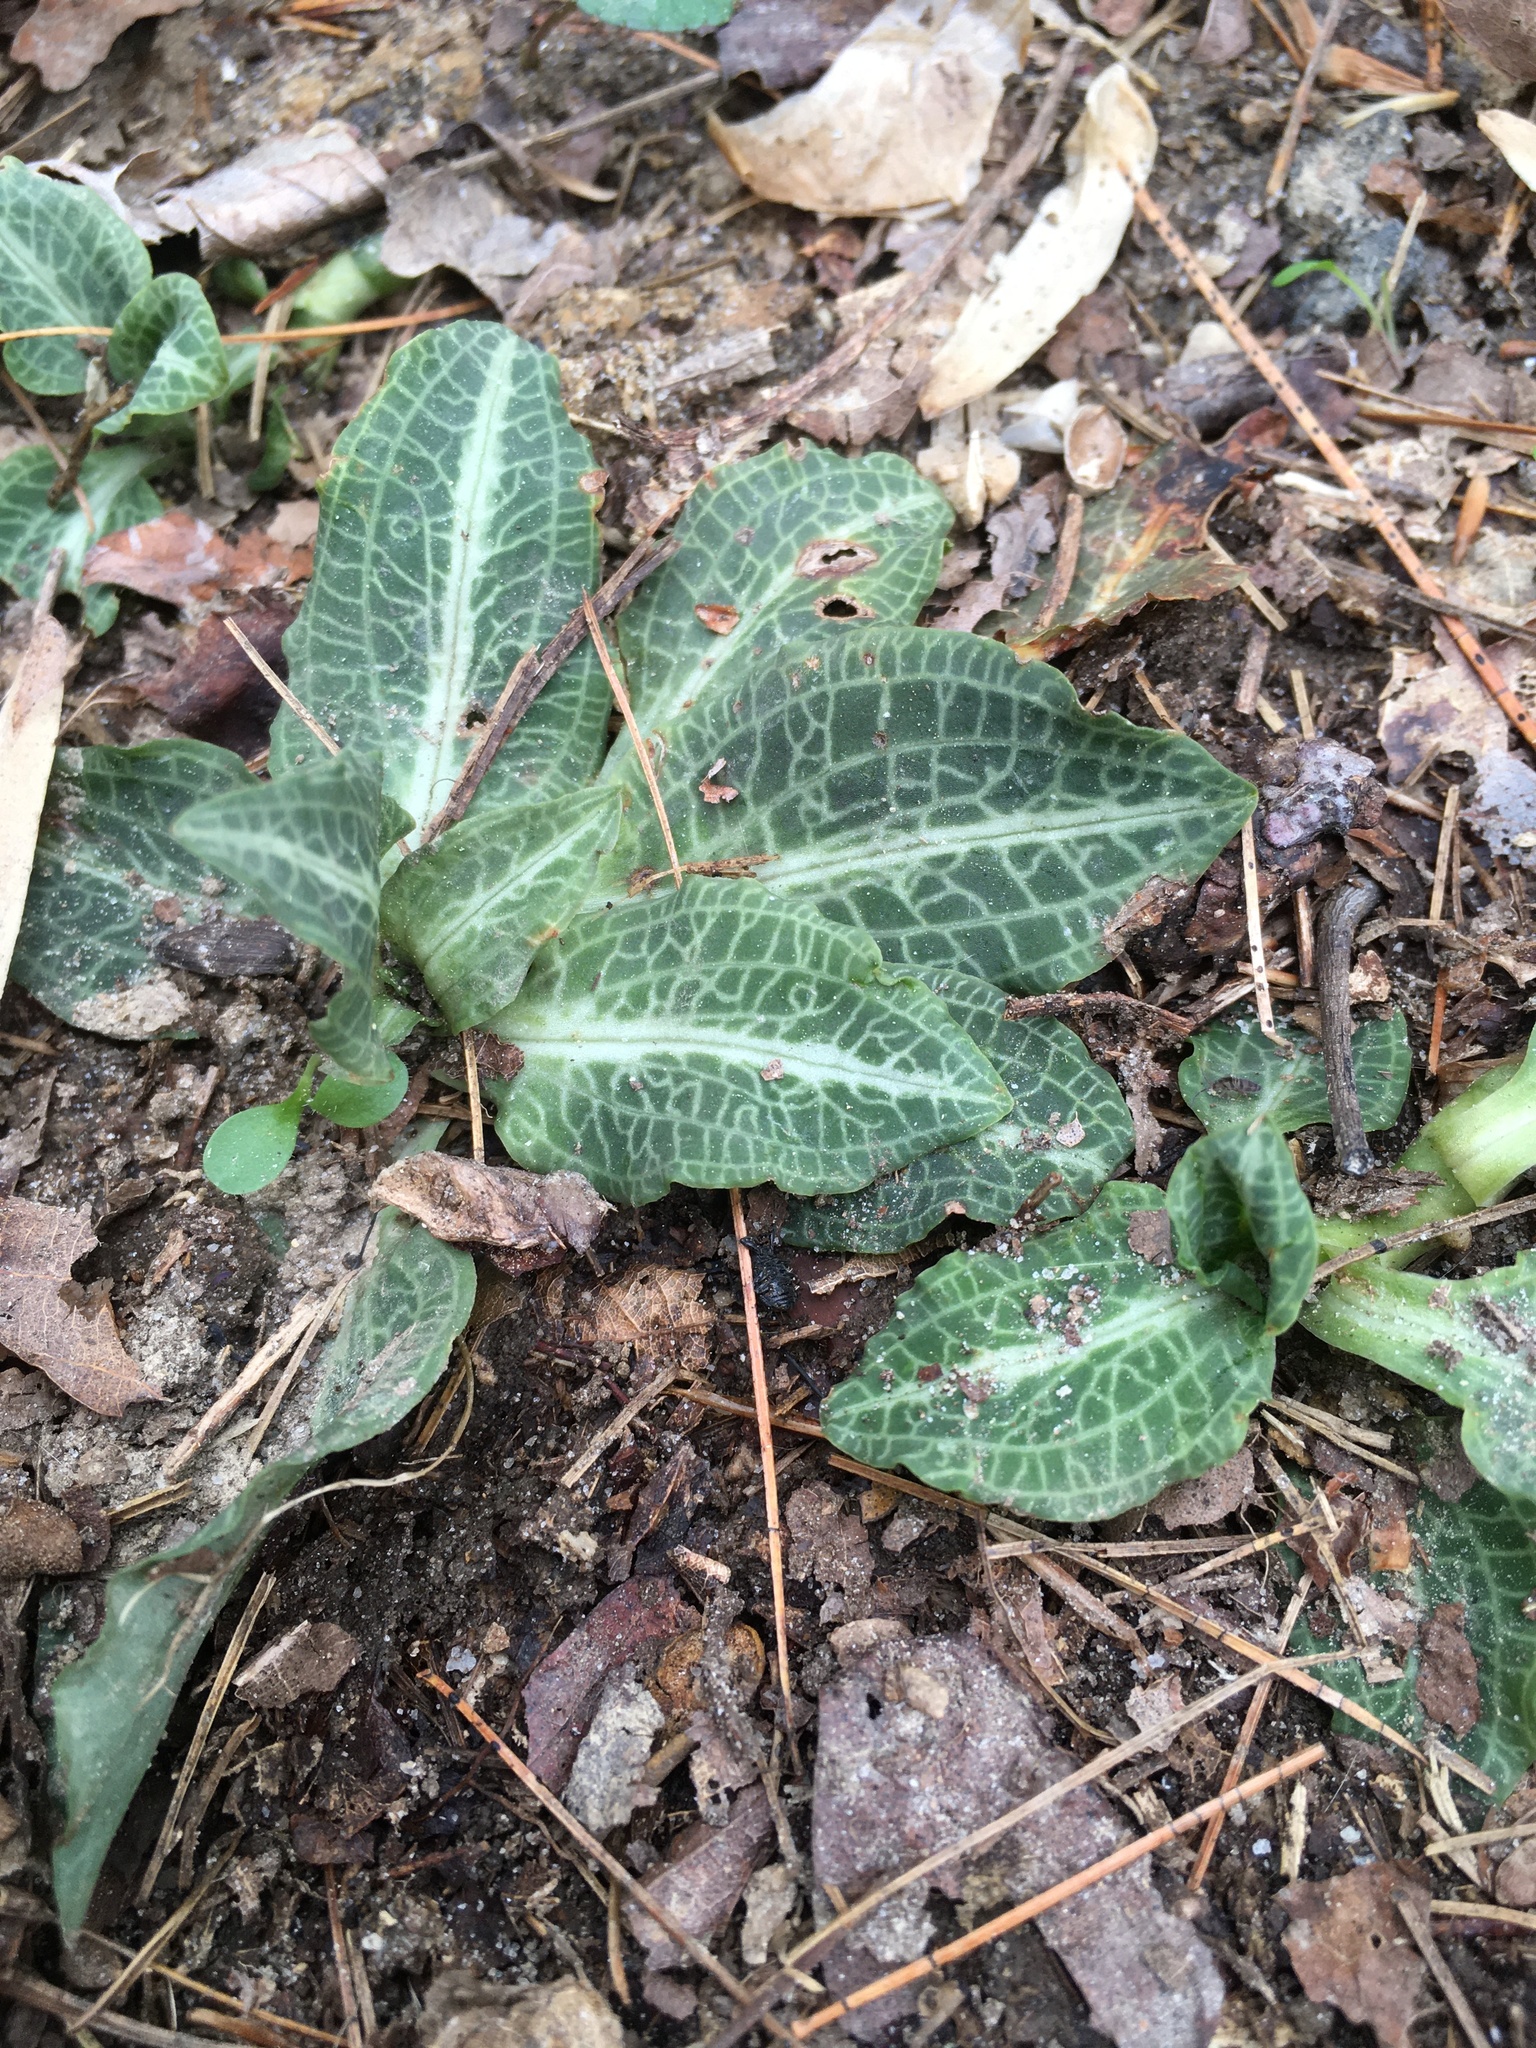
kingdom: Plantae
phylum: Tracheophyta
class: Liliopsida
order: Asparagales
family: Orchidaceae
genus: Goodyera
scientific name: Goodyera pubescens
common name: Downy rattlesnake-plantain
